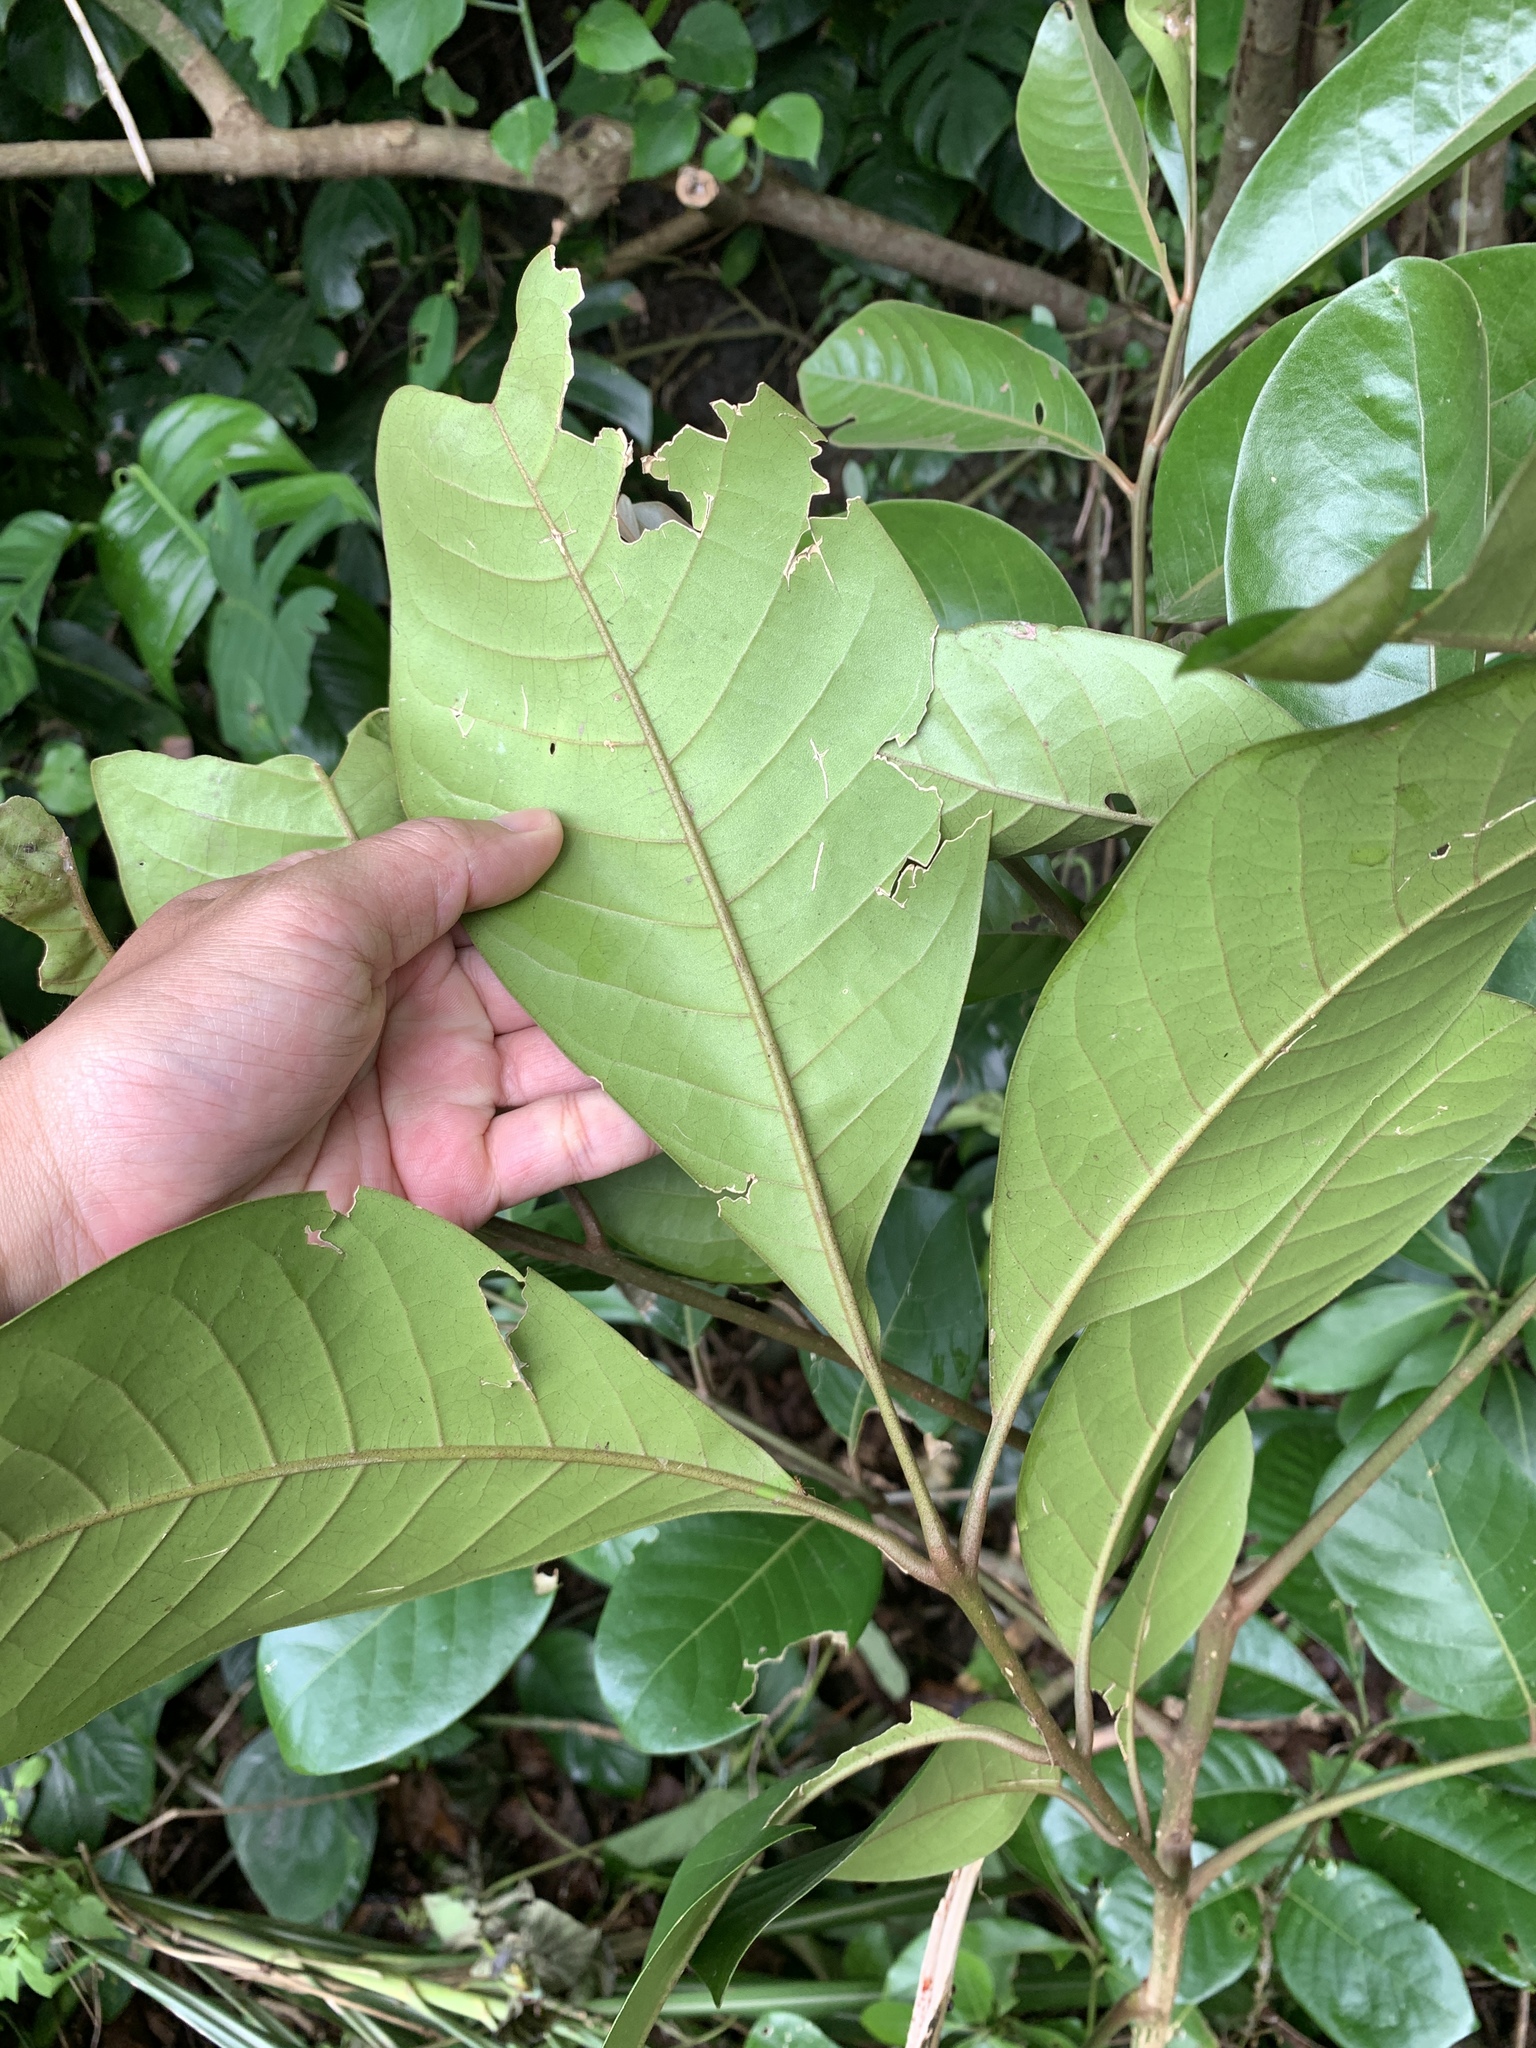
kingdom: Plantae
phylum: Tracheophyta
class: Magnoliopsida
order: Sapindales
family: Meliaceae
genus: Aglaia
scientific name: Aglaia rimosa
